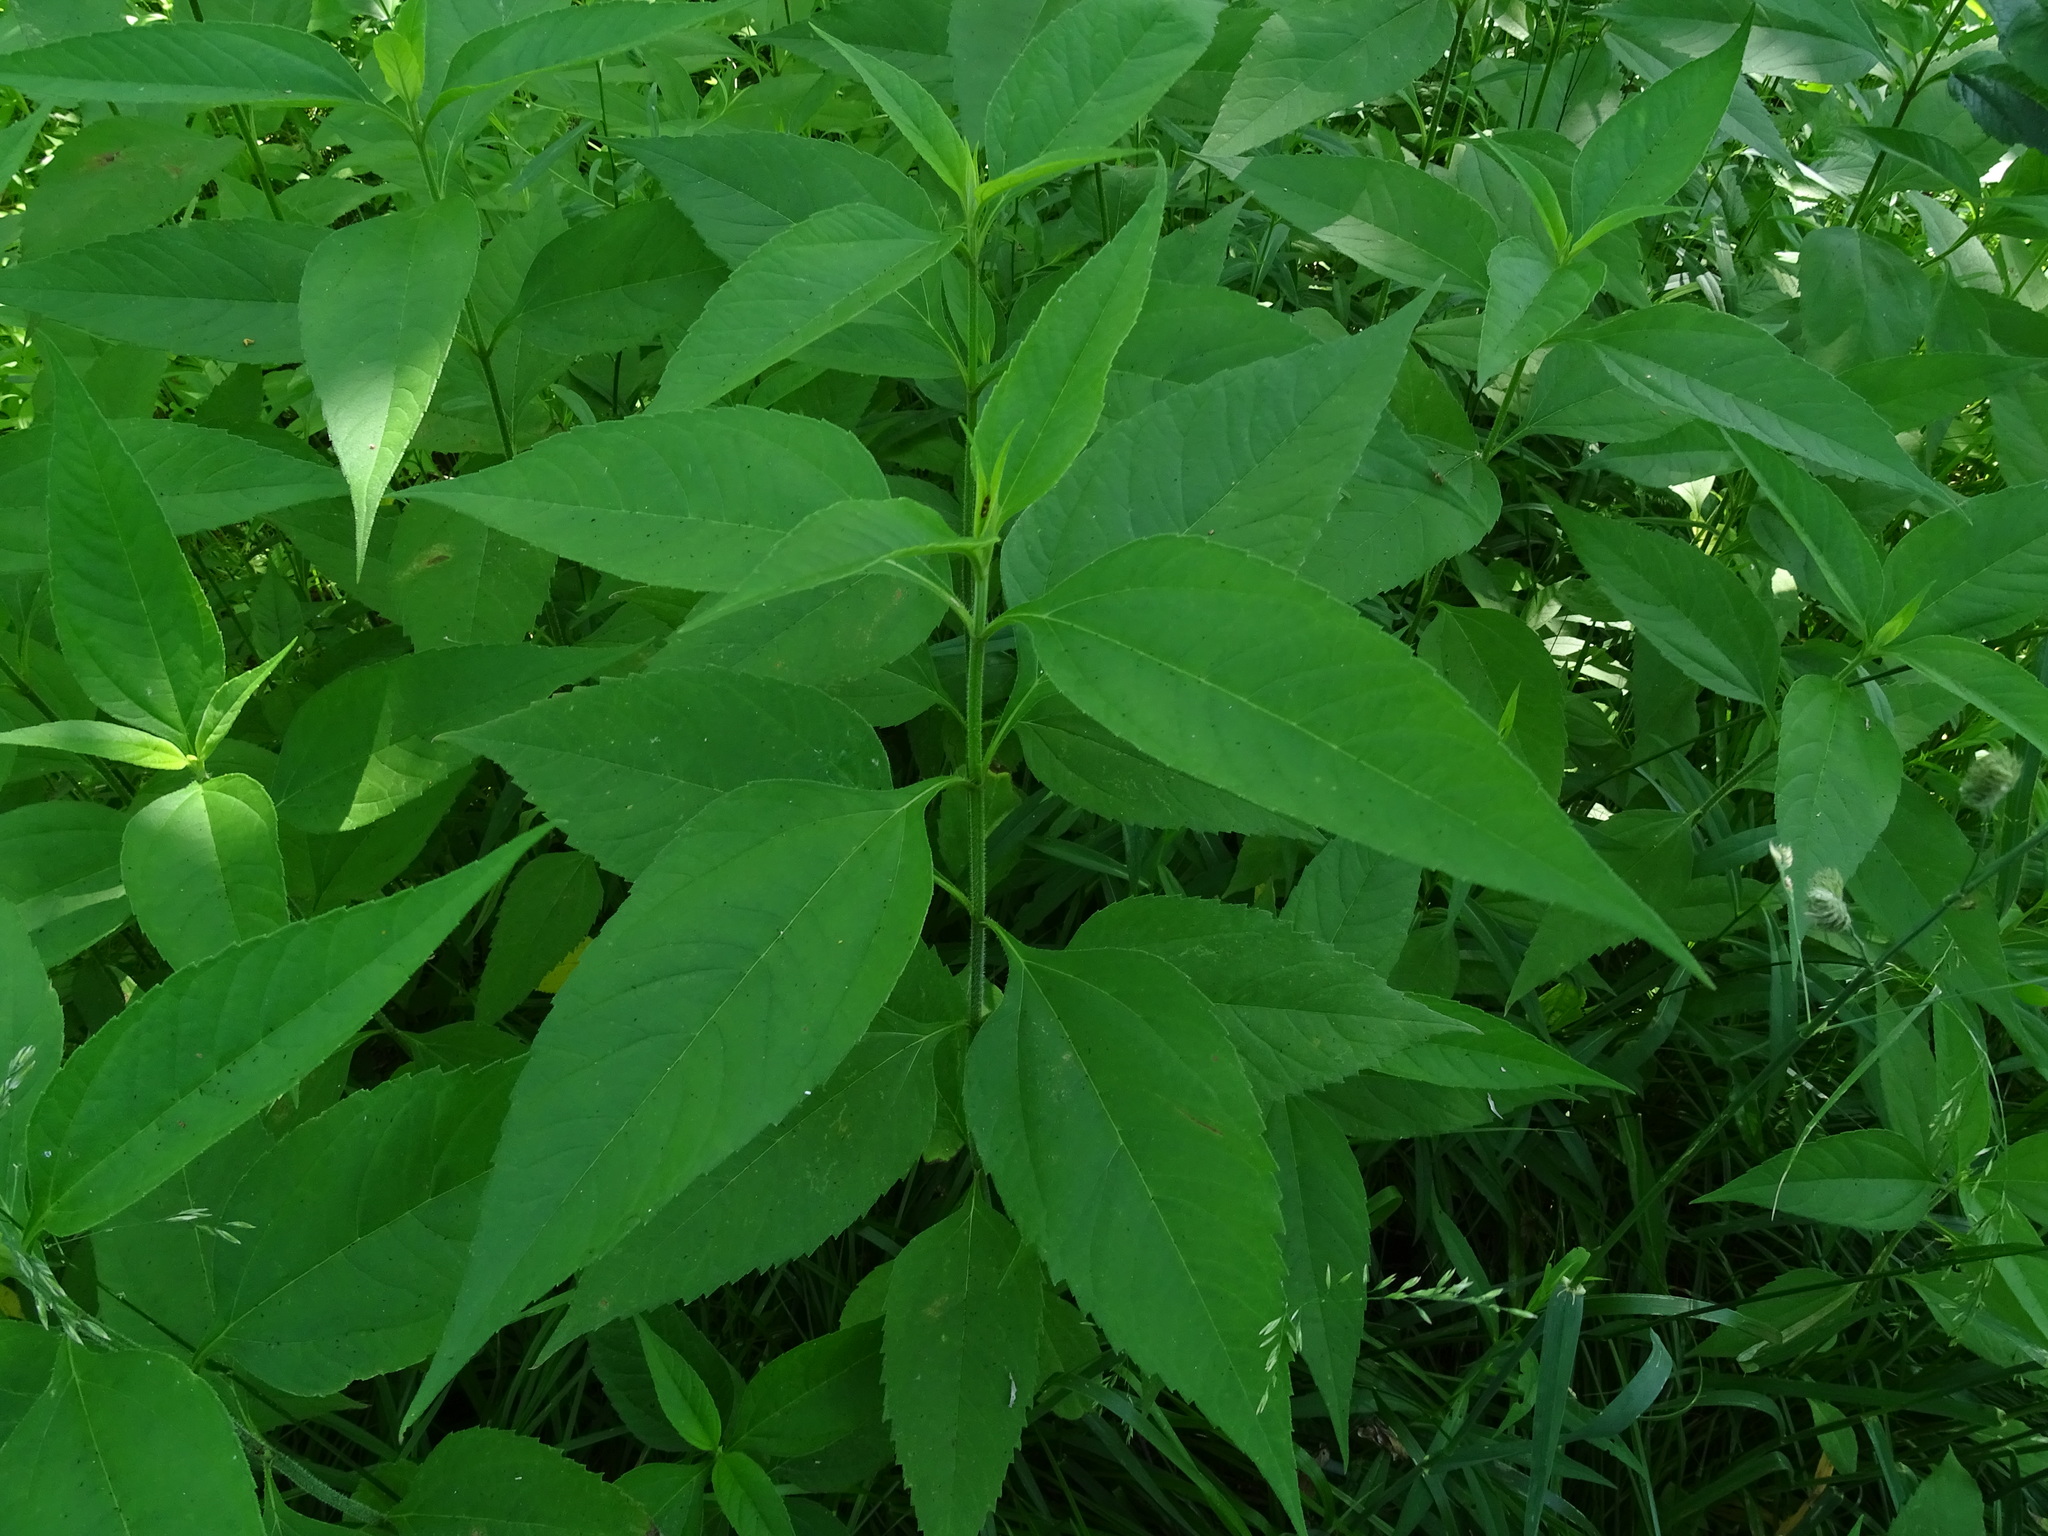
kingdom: Plantae
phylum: Tracheophyta
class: Magnoliopsida
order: Asterales
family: Asteraceae
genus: Helianthus
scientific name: Helianthus tuberosus
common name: Jerusalem artichoke
